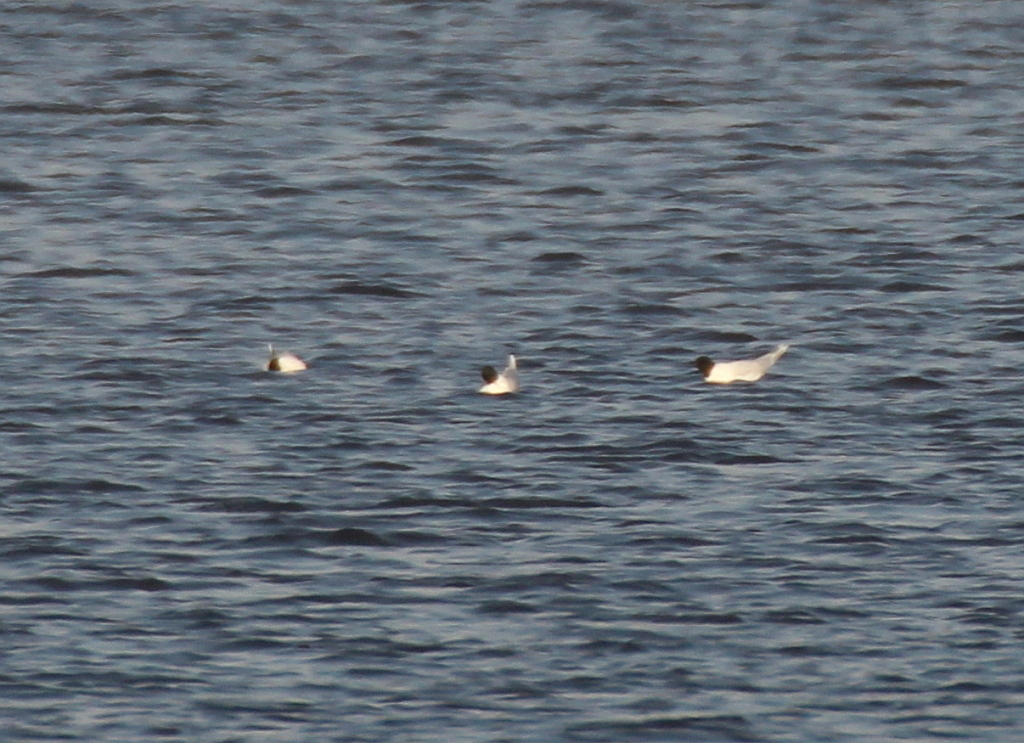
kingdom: Animalia
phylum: Chordata
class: Aves
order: Charadriiformes
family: Laridae
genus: Hydrocoloeus
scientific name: Hydrocoloeus minutus
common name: Little gull
